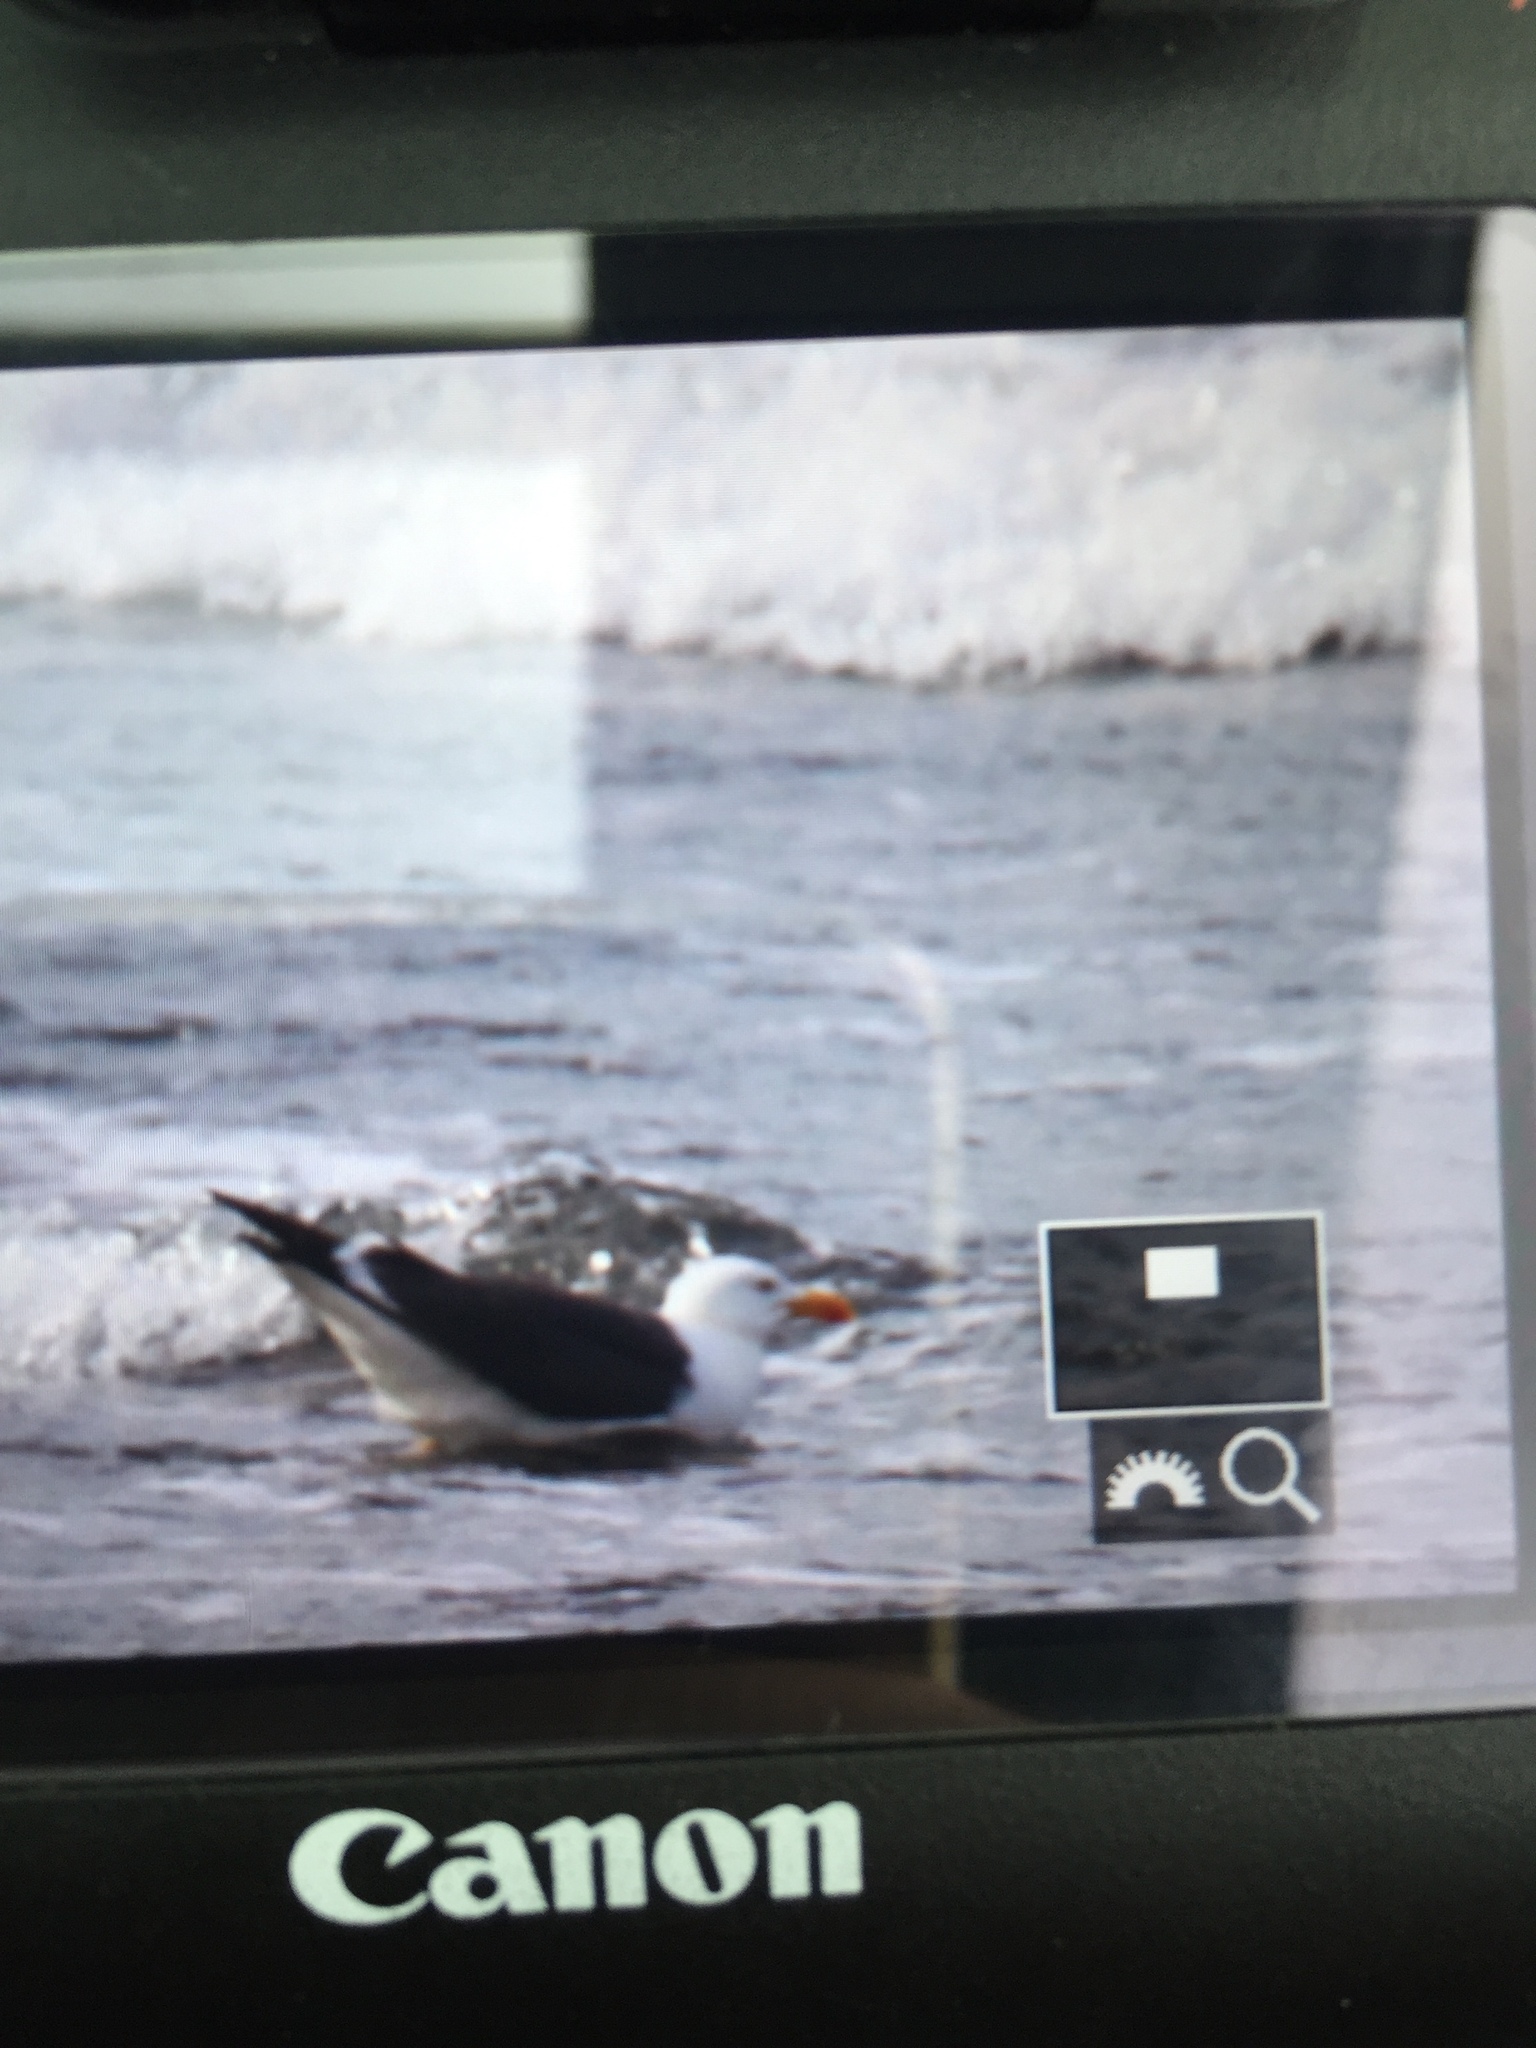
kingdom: Animalia
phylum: Chordata
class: Aves
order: Charadriiformes
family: Laridae
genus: Larus
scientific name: Larus marinus
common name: Great black-backed gull
